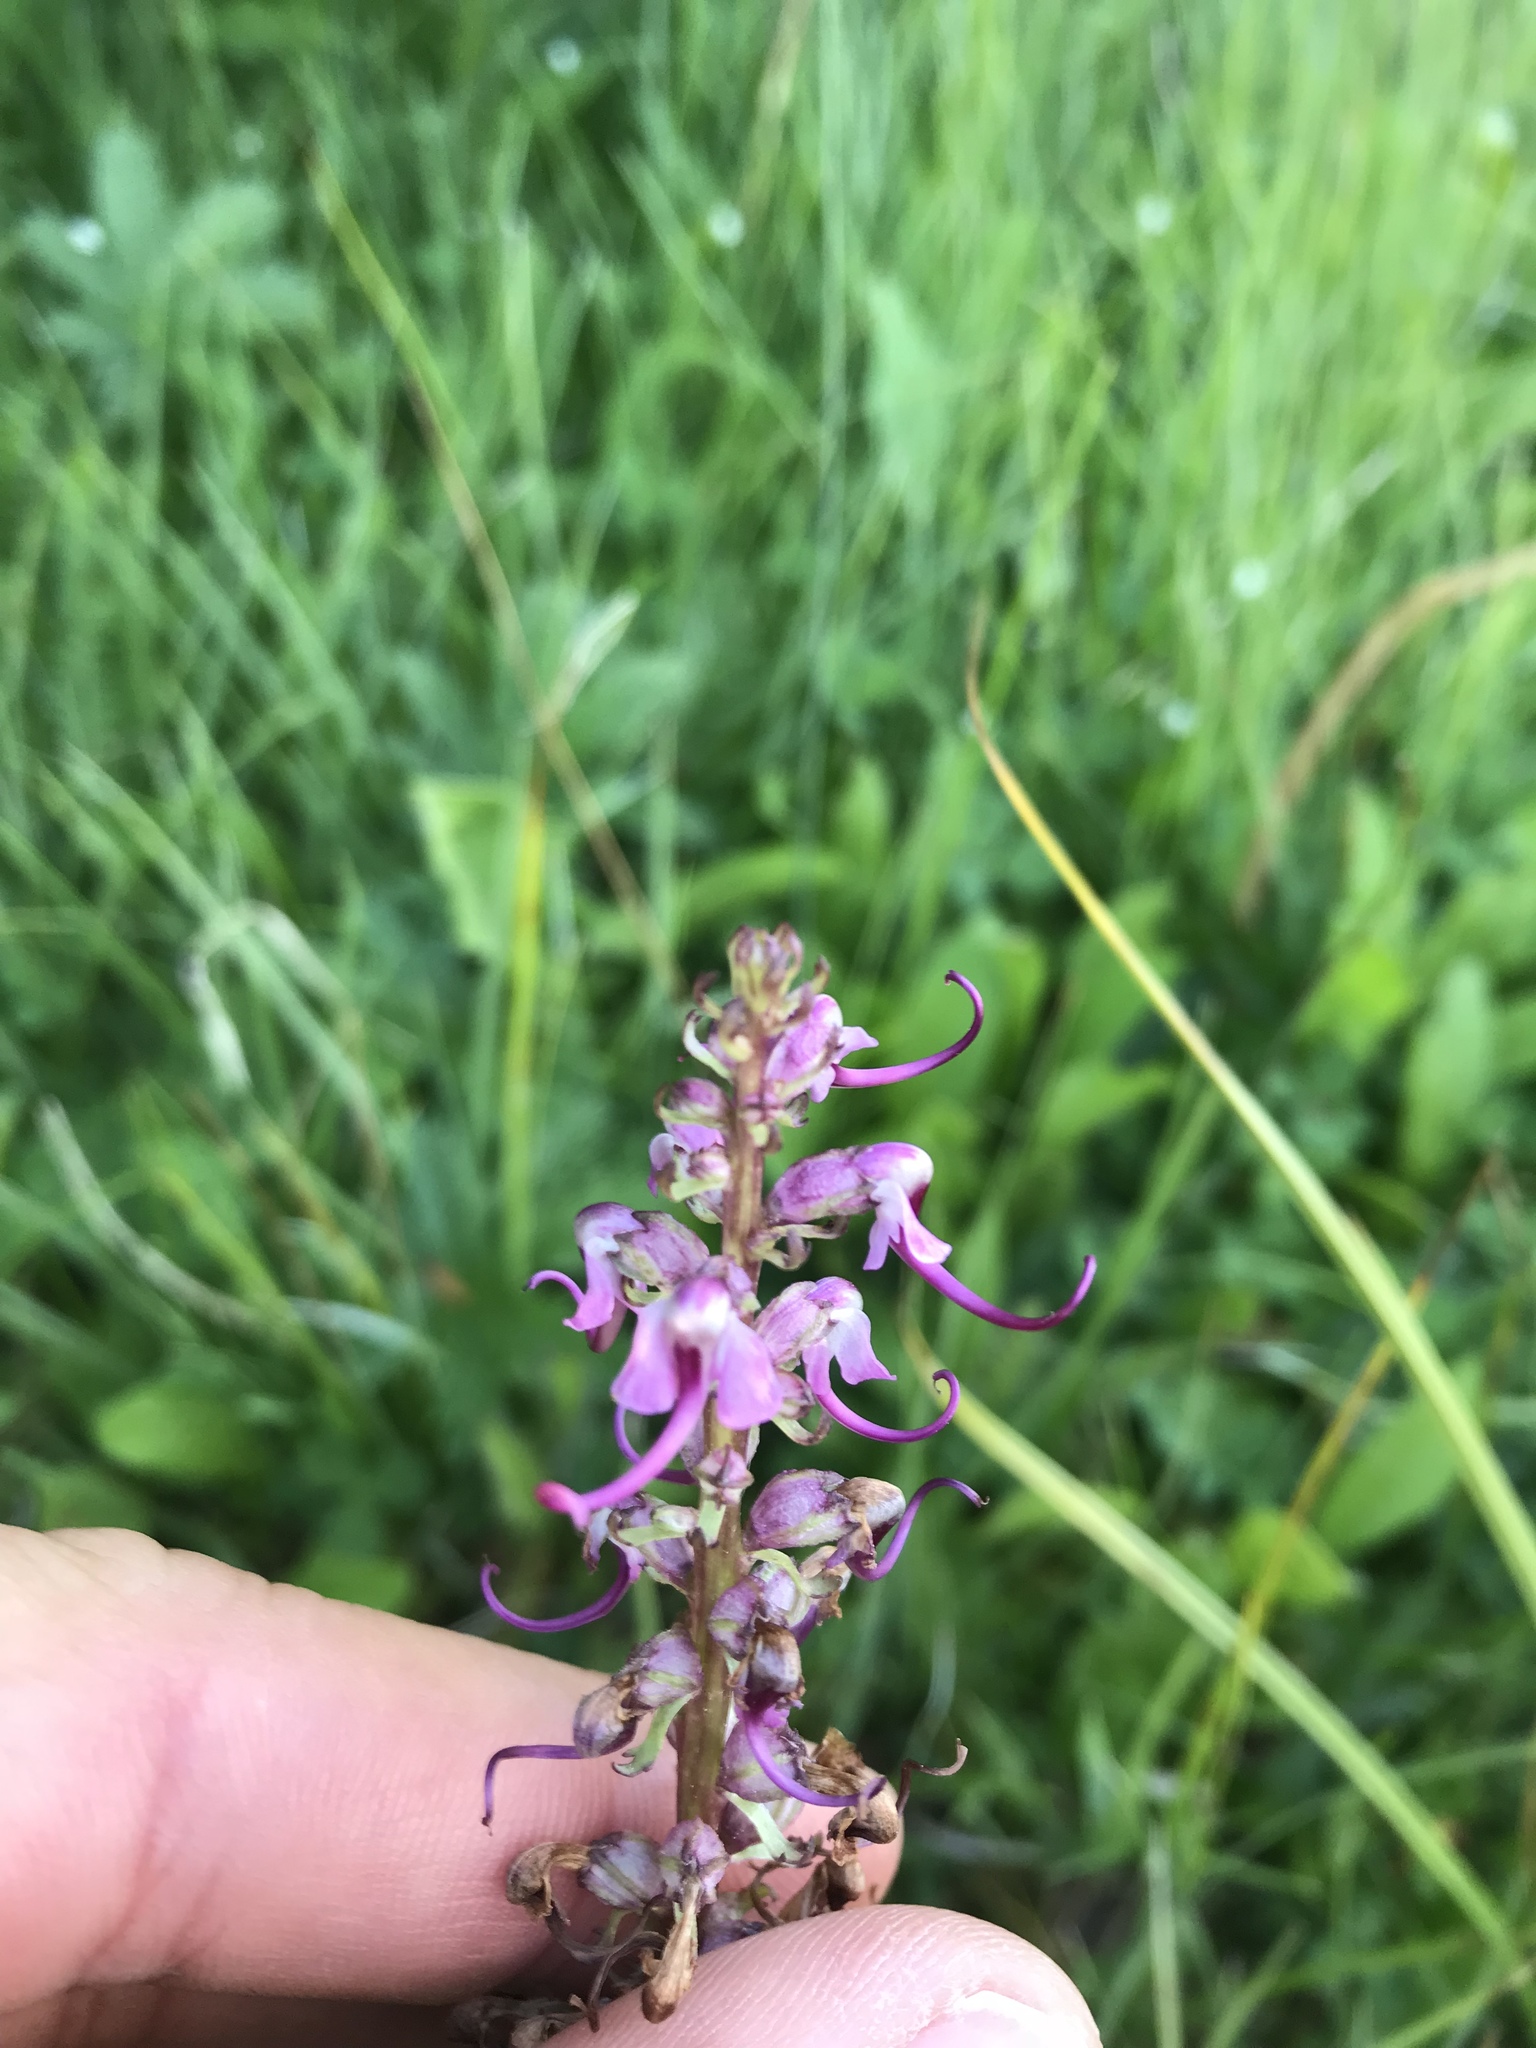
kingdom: Plantae
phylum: Tracheophyta
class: Magnoliopsida
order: Lamiales
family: Orobanchaceae
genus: Pedicularis
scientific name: Pedicularis groenlandica
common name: Elephant's-head
